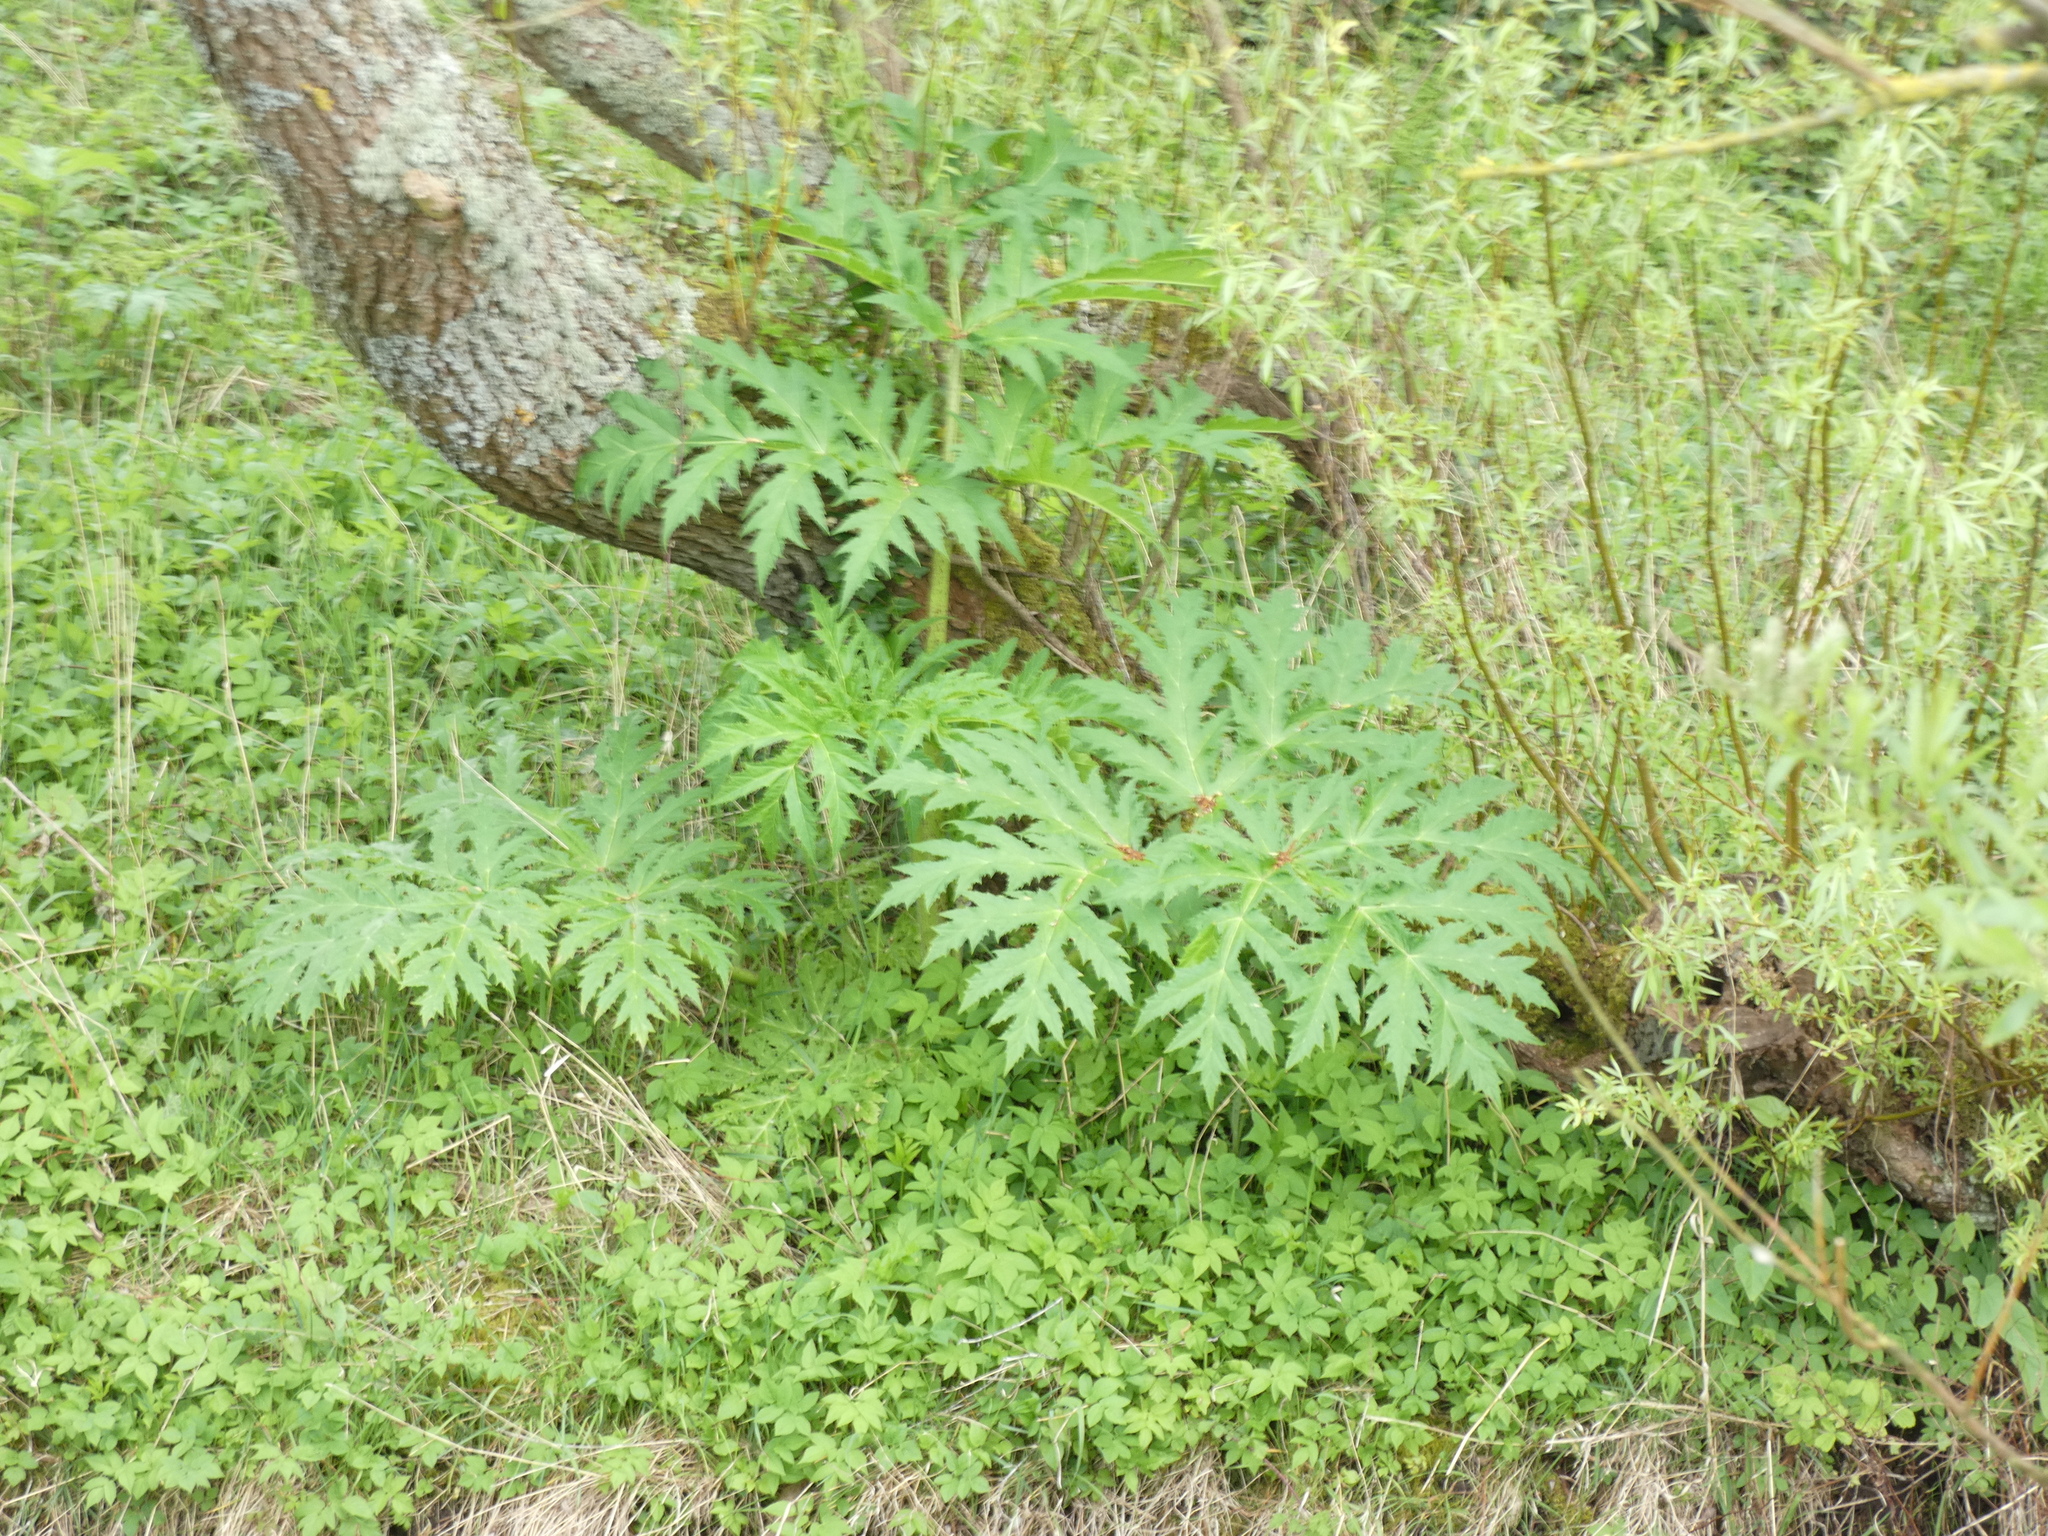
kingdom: Plantae
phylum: Tracheophyta
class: Magnoliopsida
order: Apiales
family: Apiaceae
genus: Heracleum
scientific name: Heracleum mantegazzianum
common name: Giant hogweed
